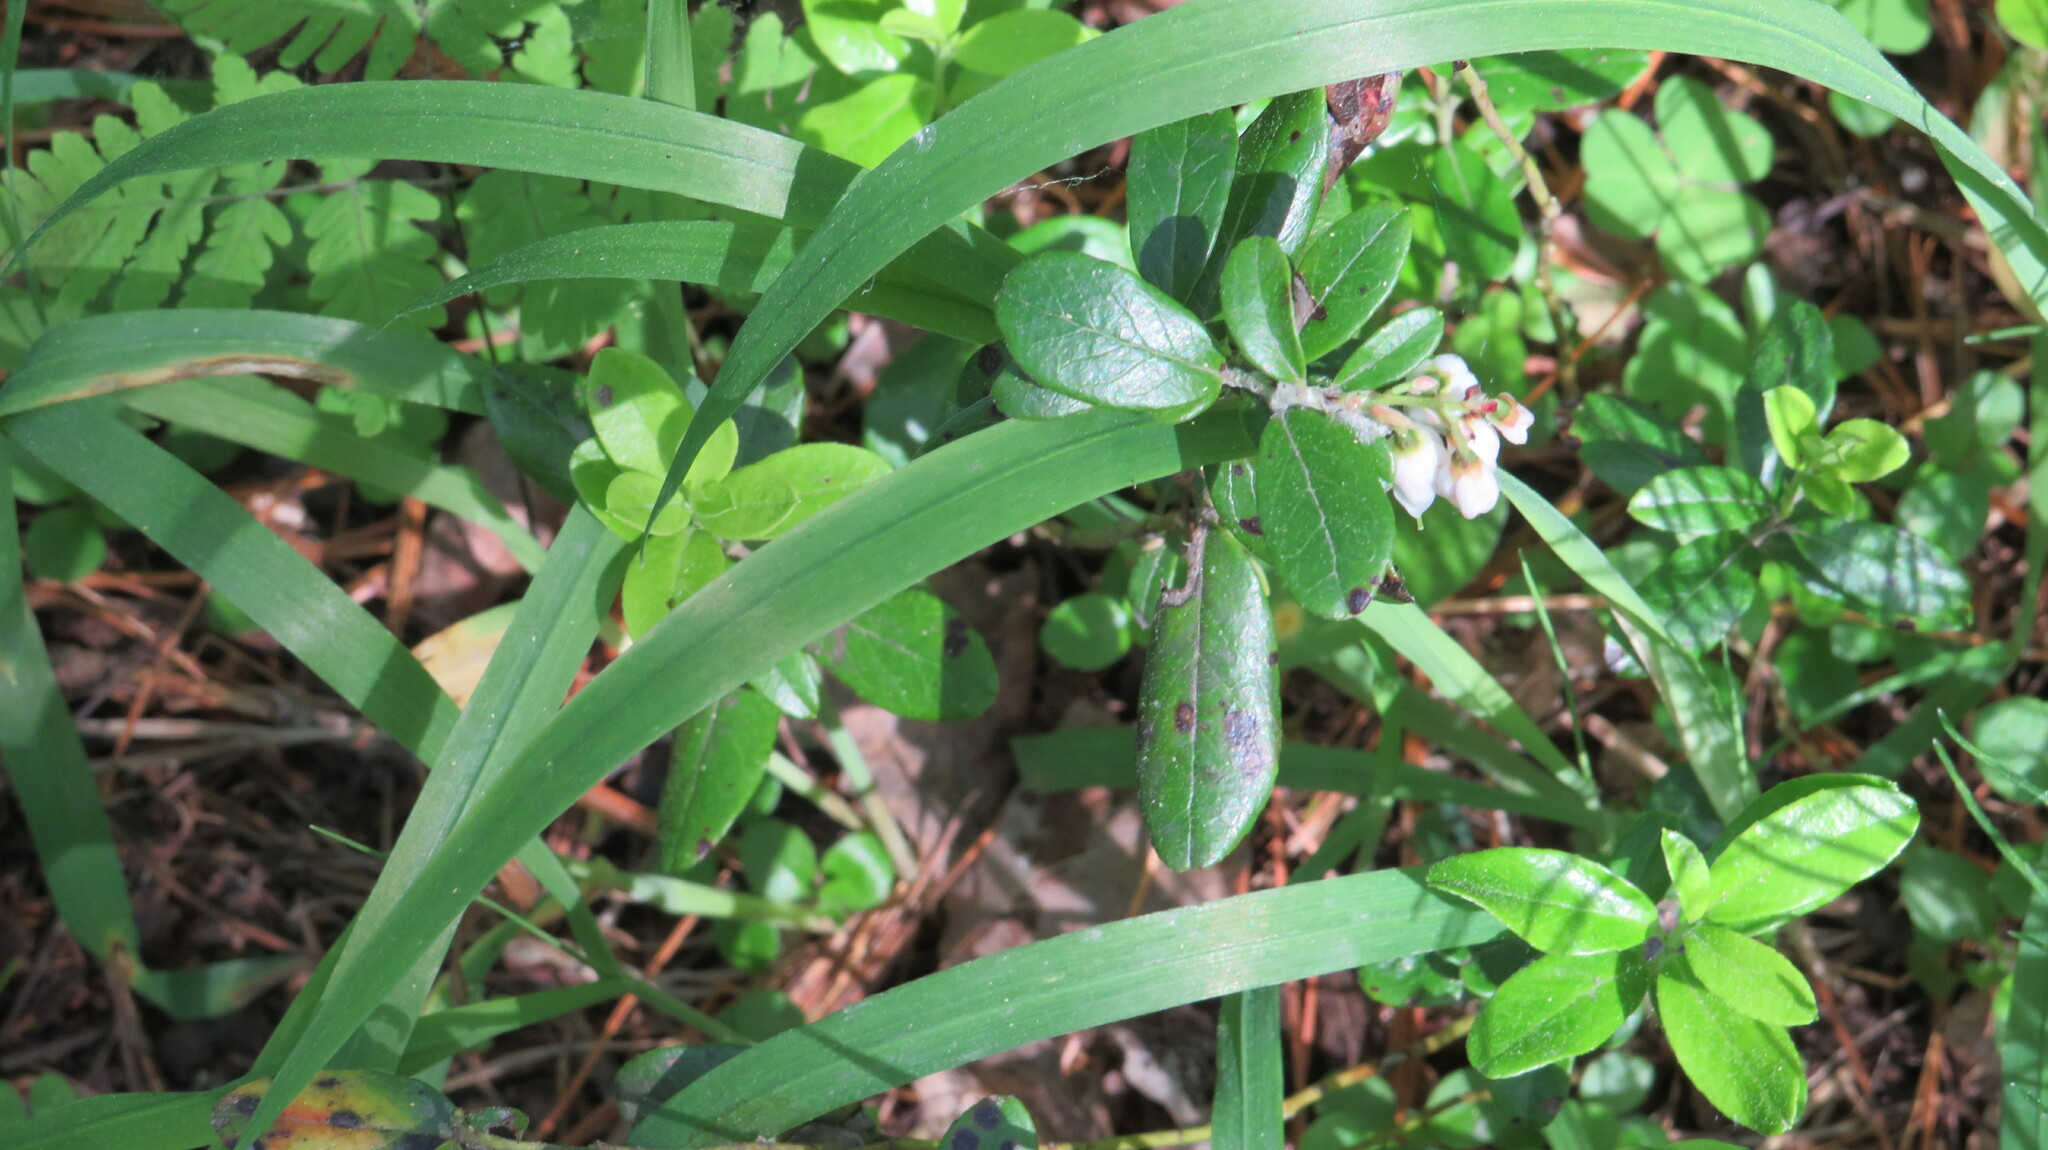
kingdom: Plantae
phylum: Tracheophyta
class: Magnoliopsida
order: Ericales
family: Ericaceae
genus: Vaccinium
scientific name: Vaccinium vitis-idaea
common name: Cowberry
